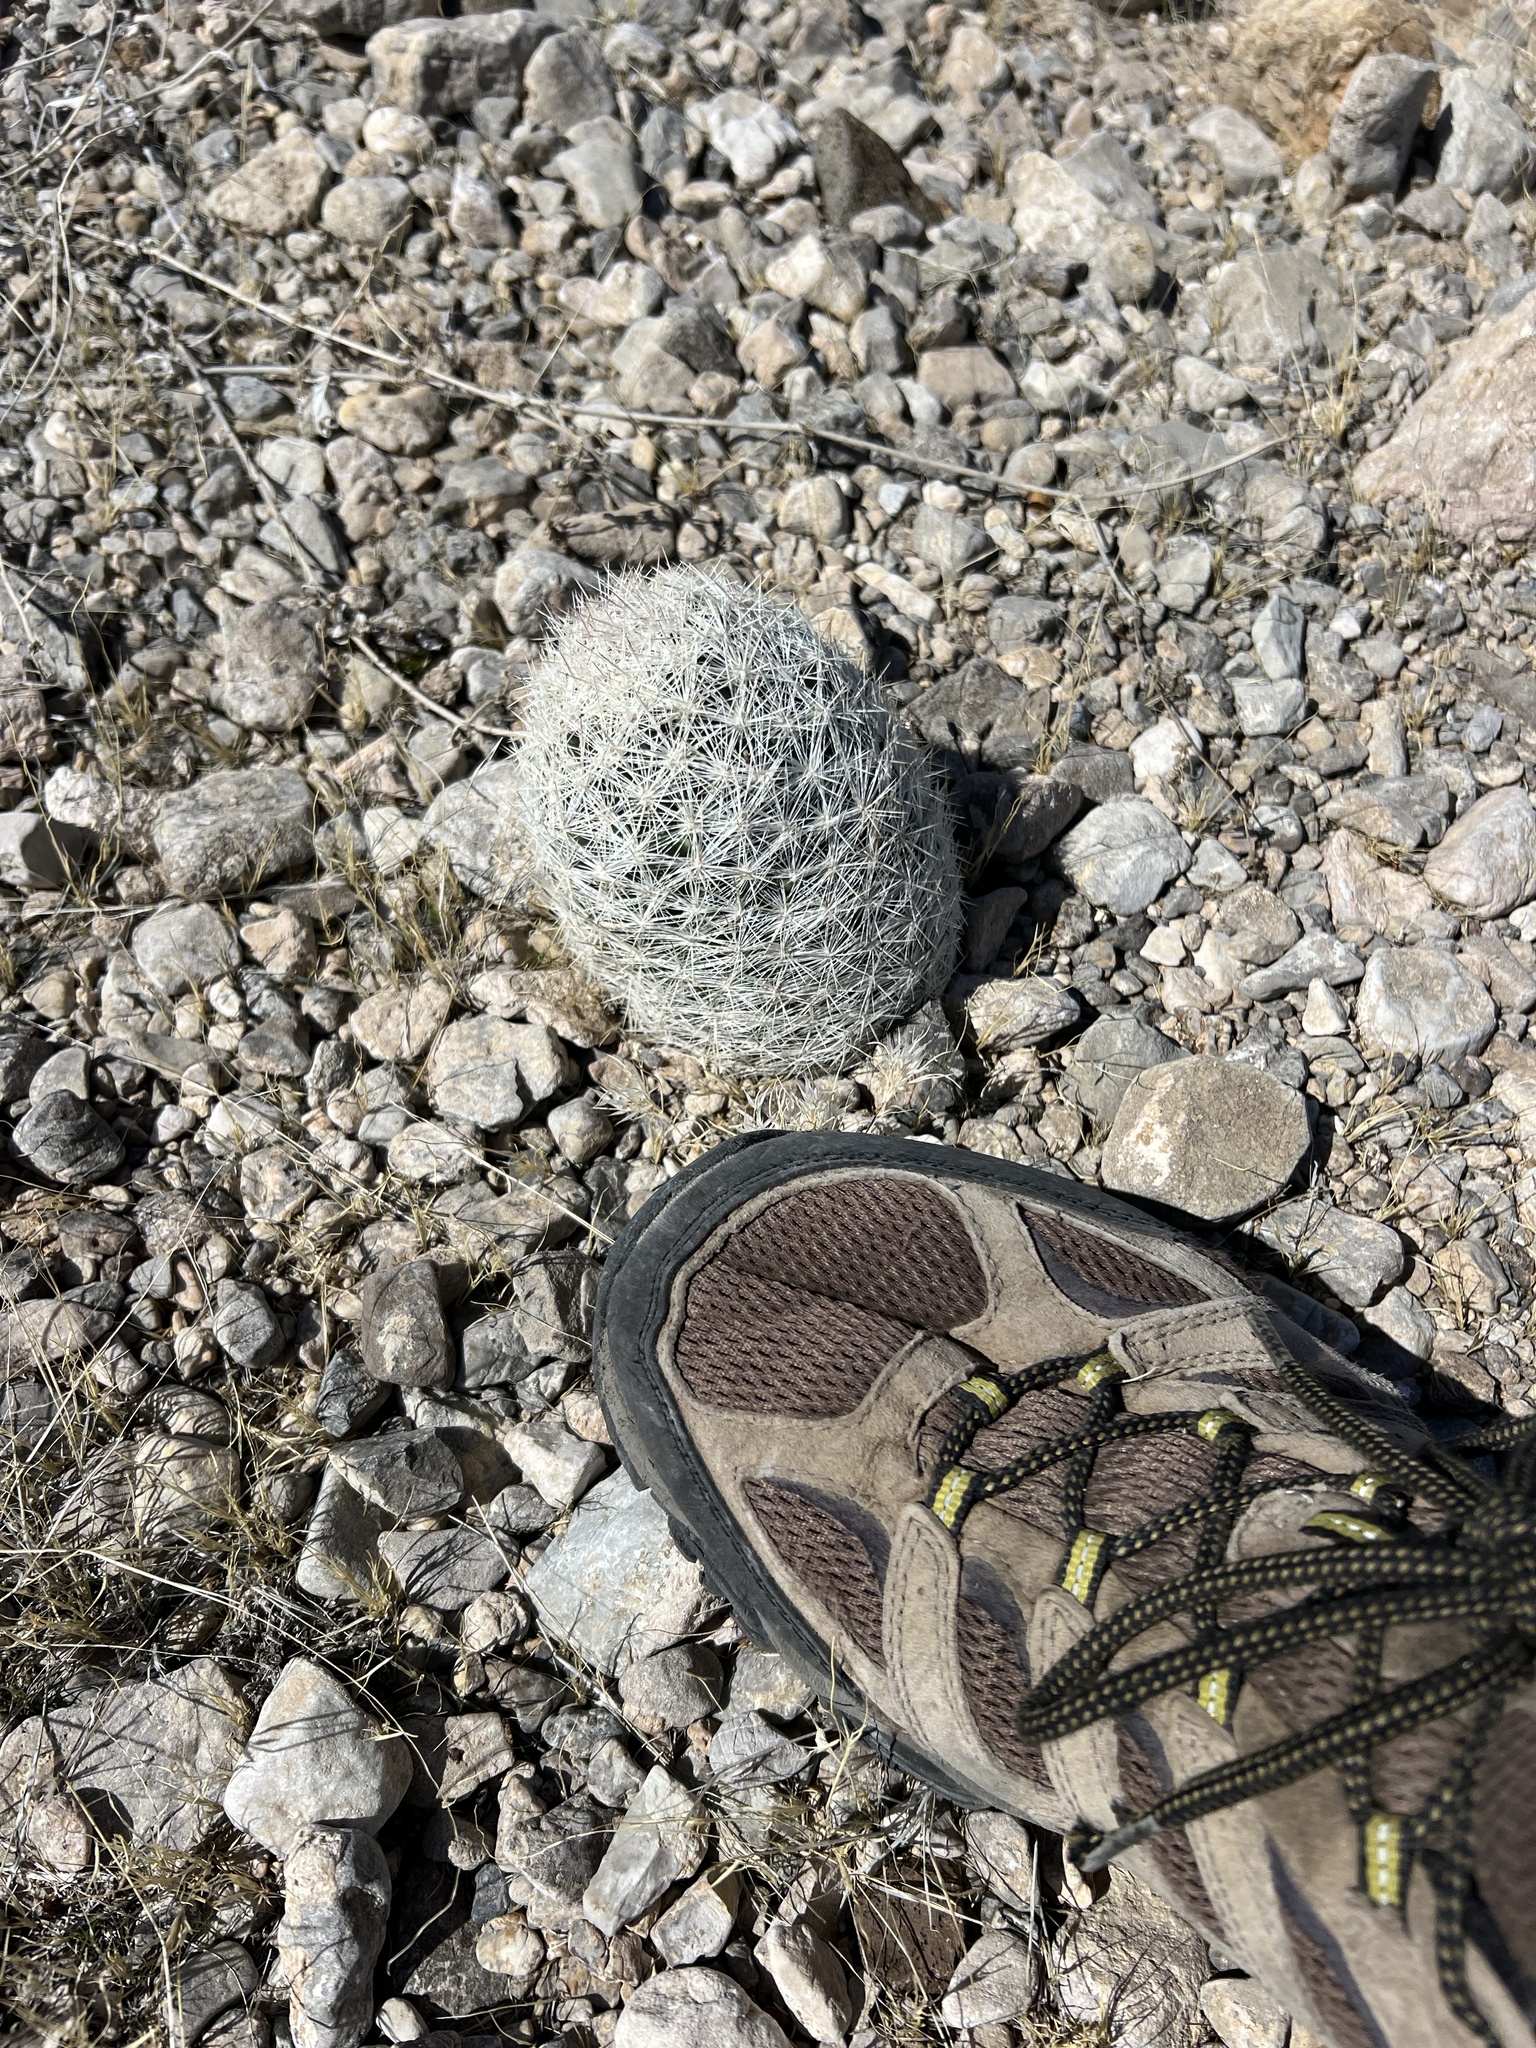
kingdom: Plantae
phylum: Tracheophyta
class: Magnoliopsida
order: Caryophyllales
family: Cactaceae
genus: Pelecyphora
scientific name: Pelecyphora dasyacantha
